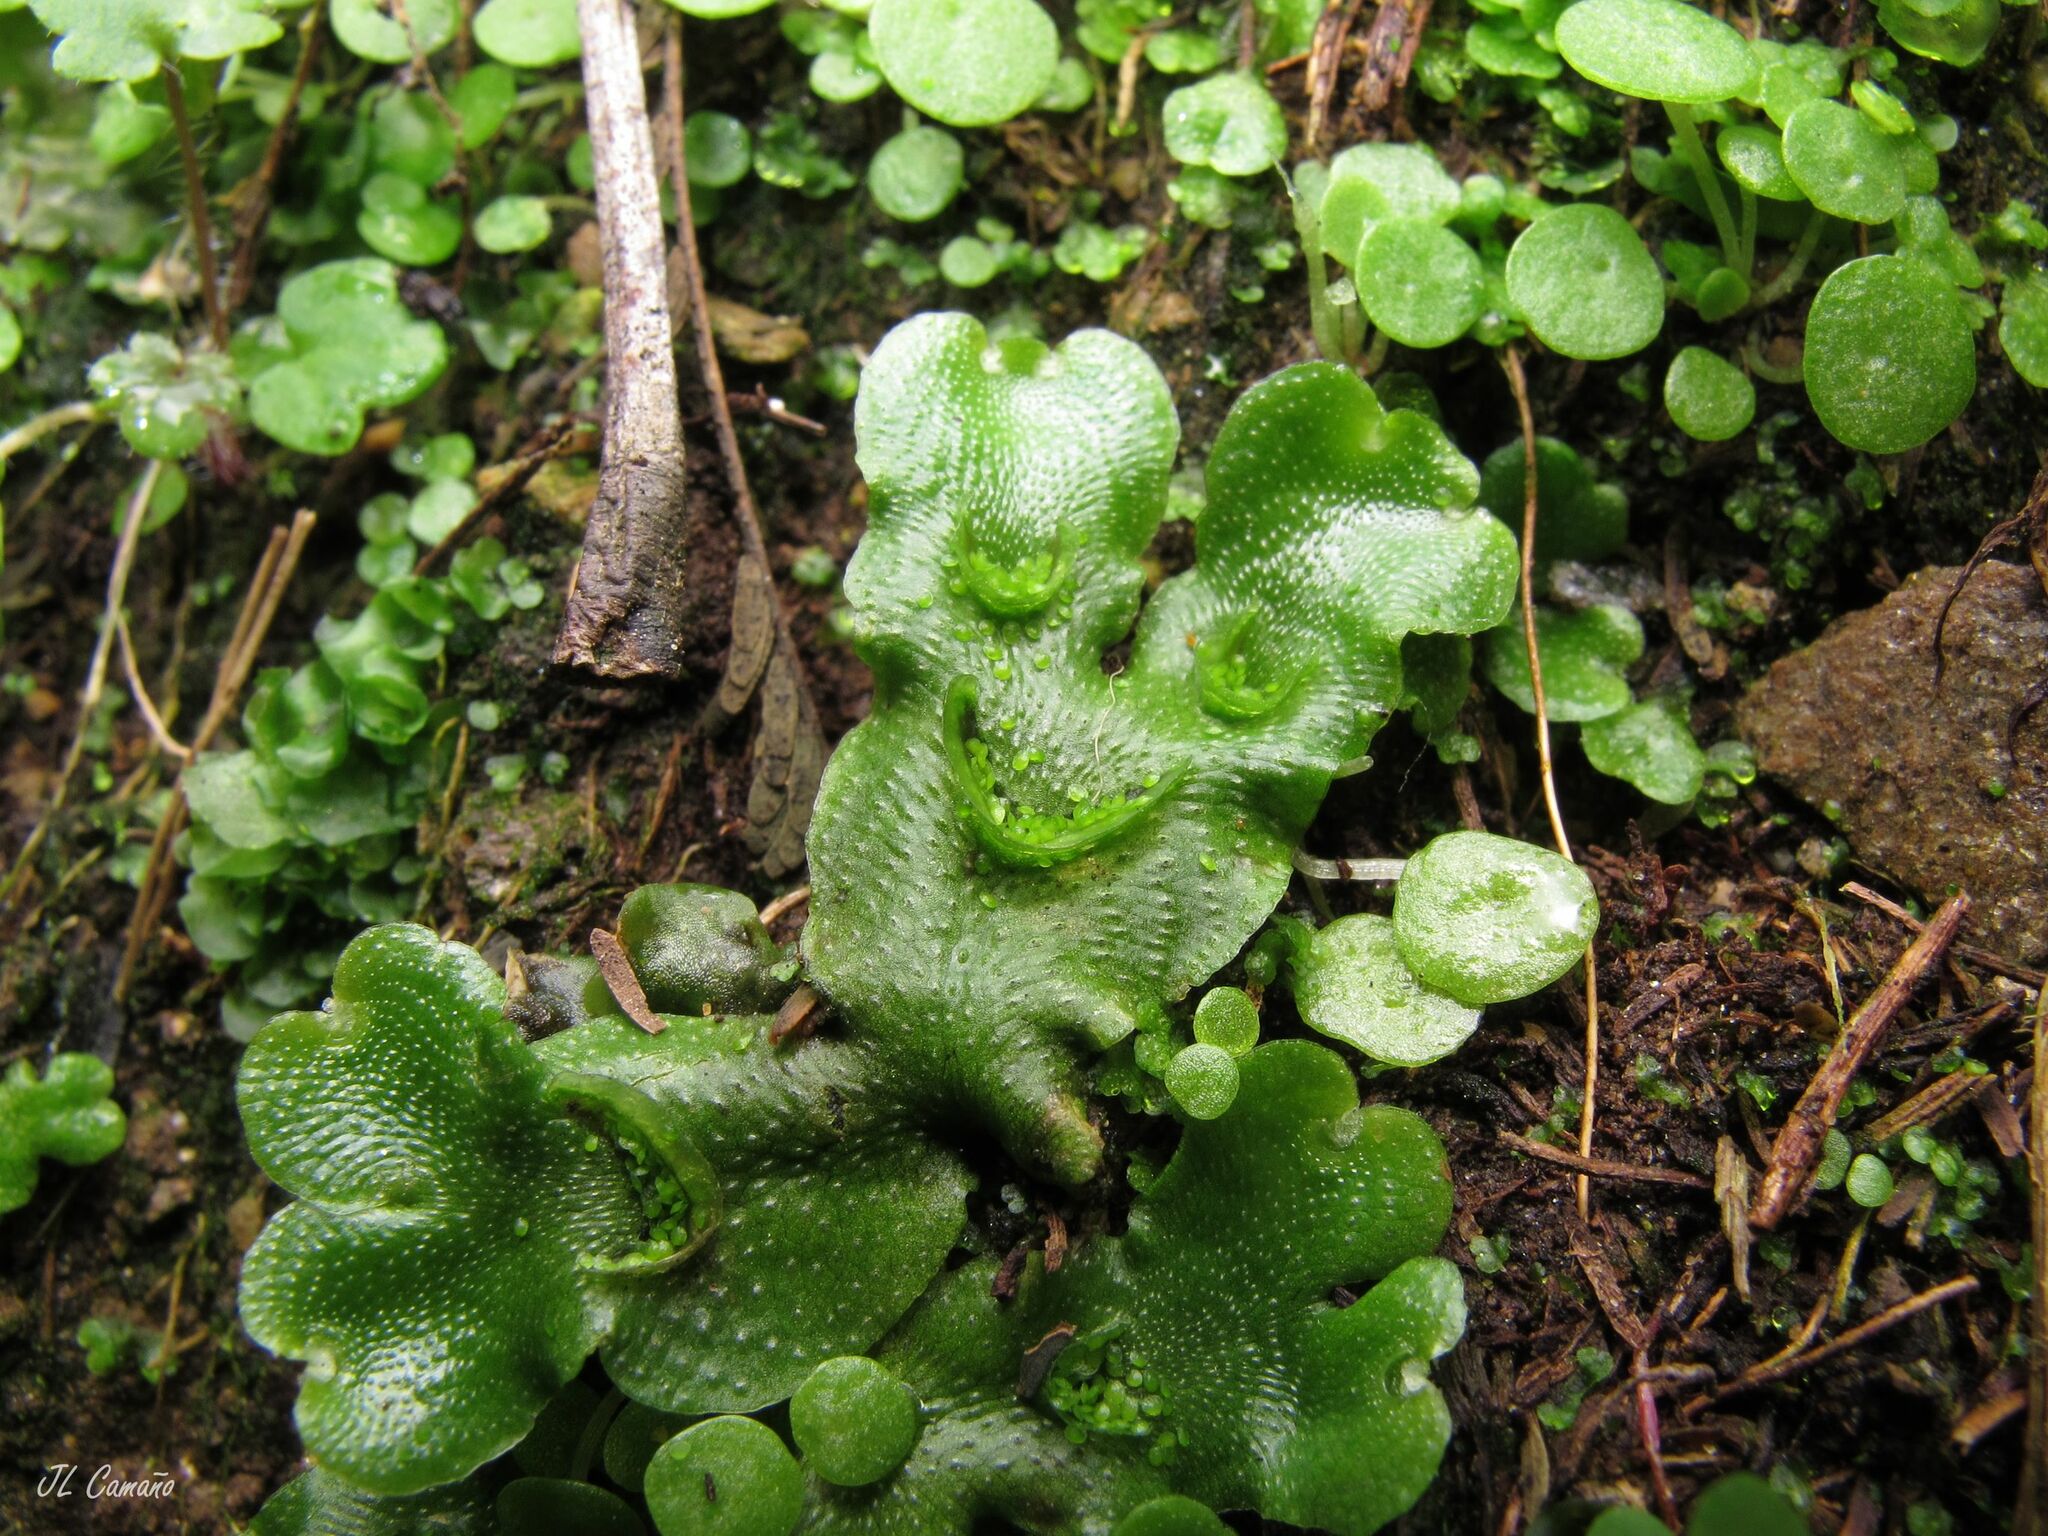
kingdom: Plantae
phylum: Marchantiophyta
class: Marchantiopsida
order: Lunulariales
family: Lunulariaceae
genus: Lunularia
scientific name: Lunularia cruciata
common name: Crescent-cup liverwort
